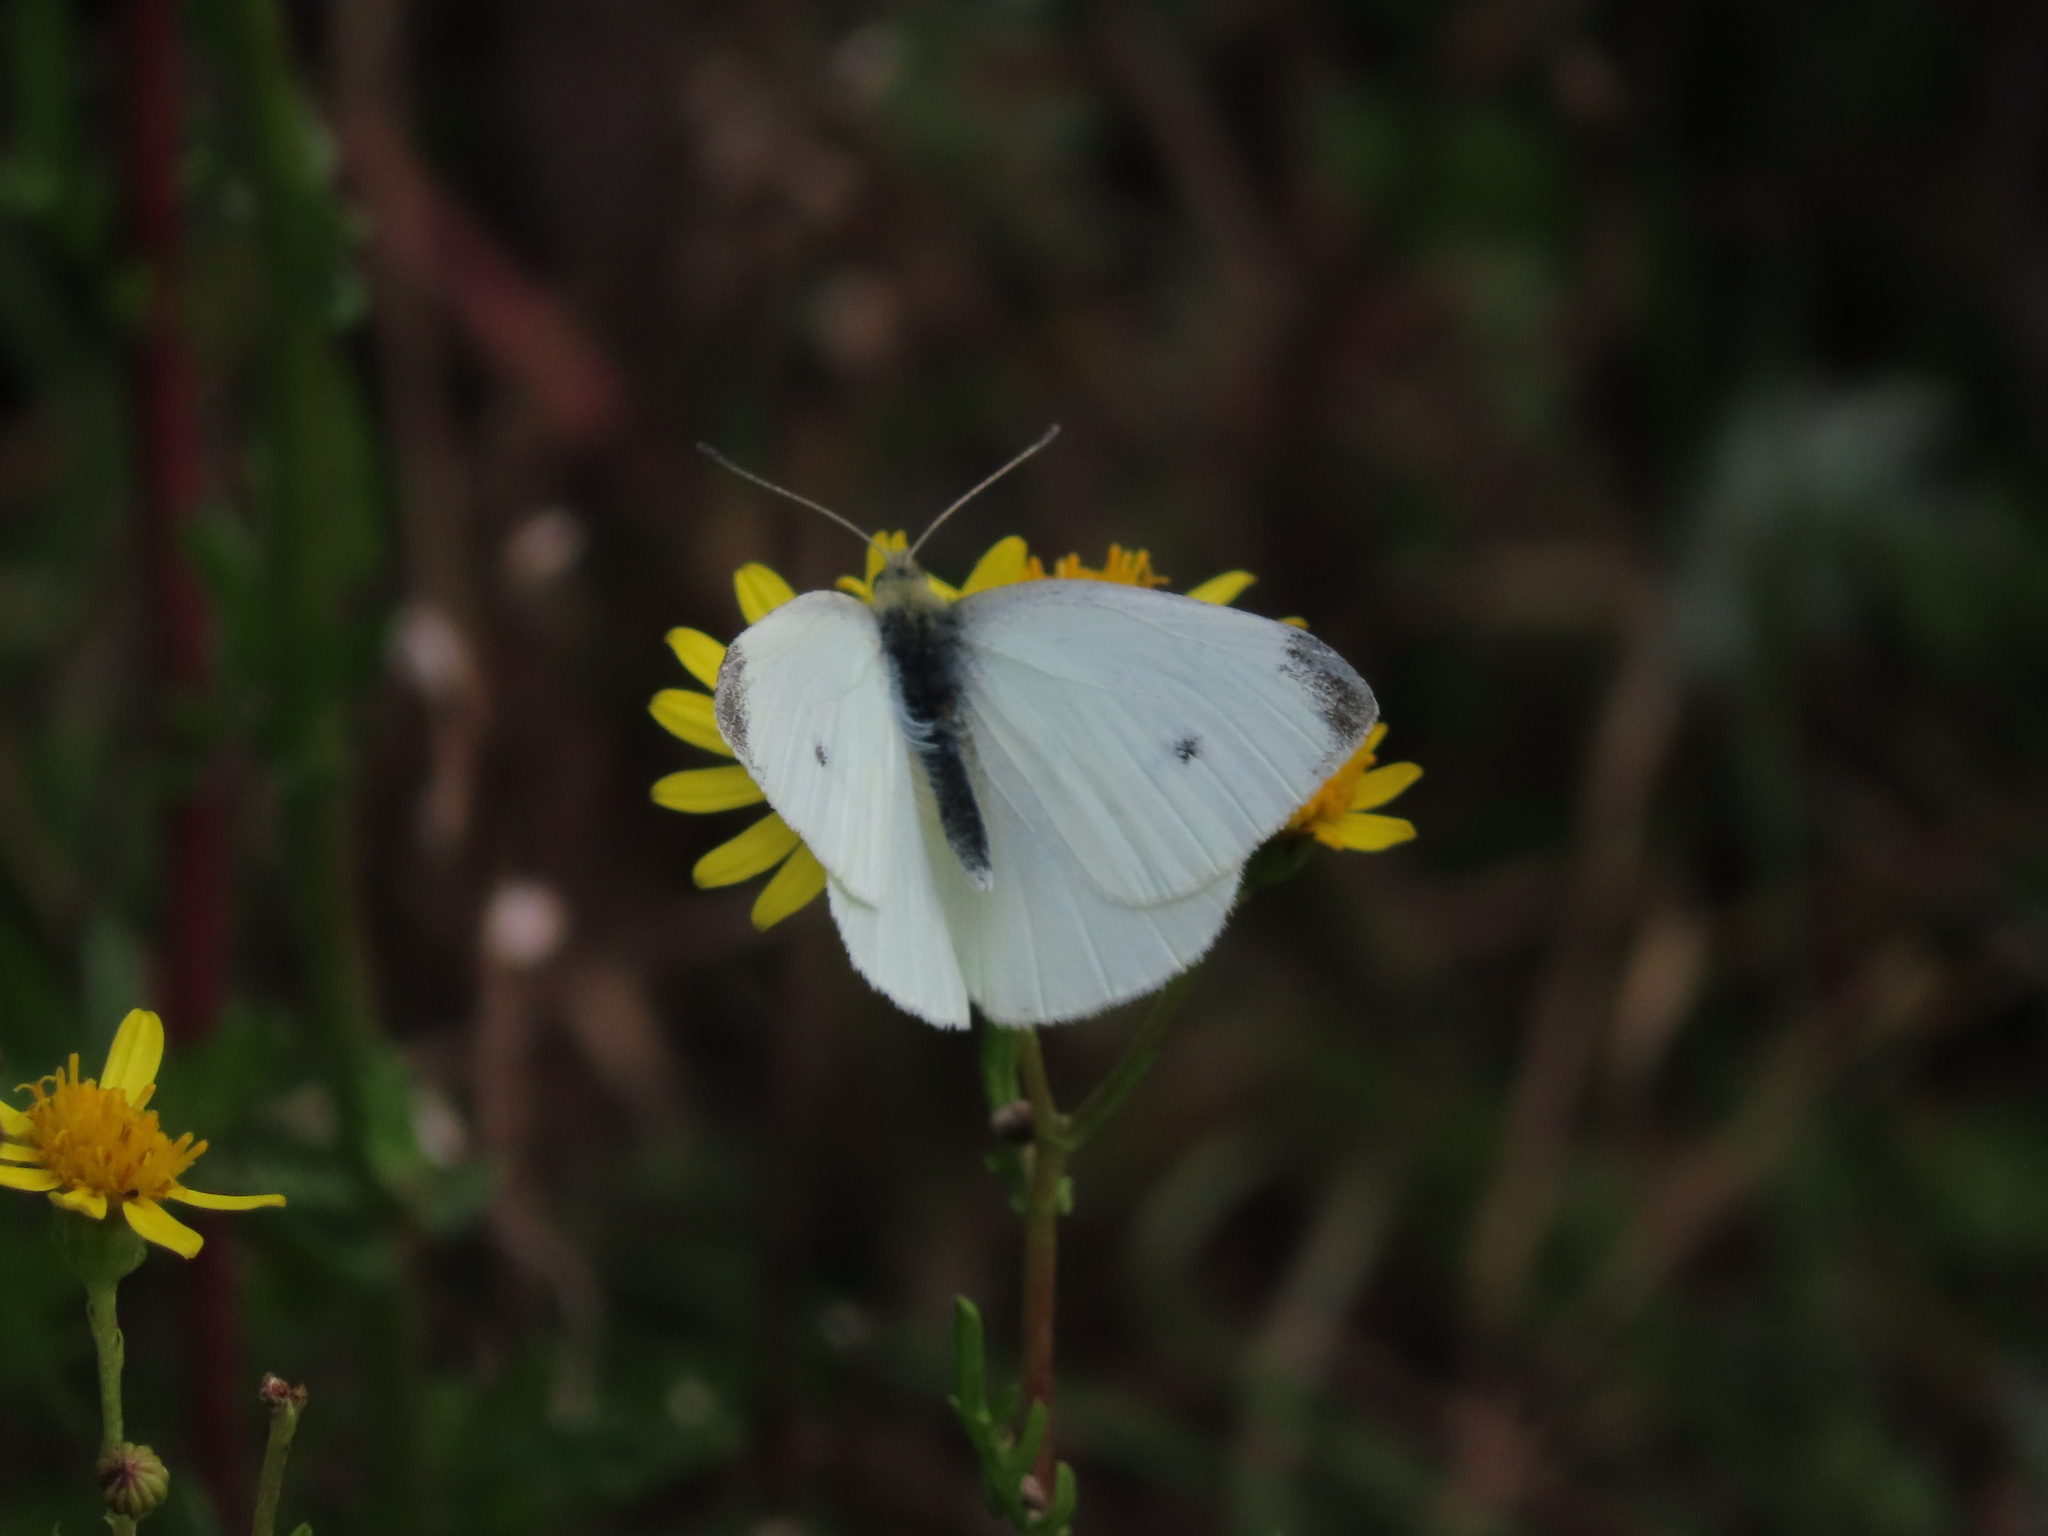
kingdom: Animalia
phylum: Arthropoda
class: Insecta
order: Lepidoptera
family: Pieridae
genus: Pieris
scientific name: Pieris rapae
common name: Small white
